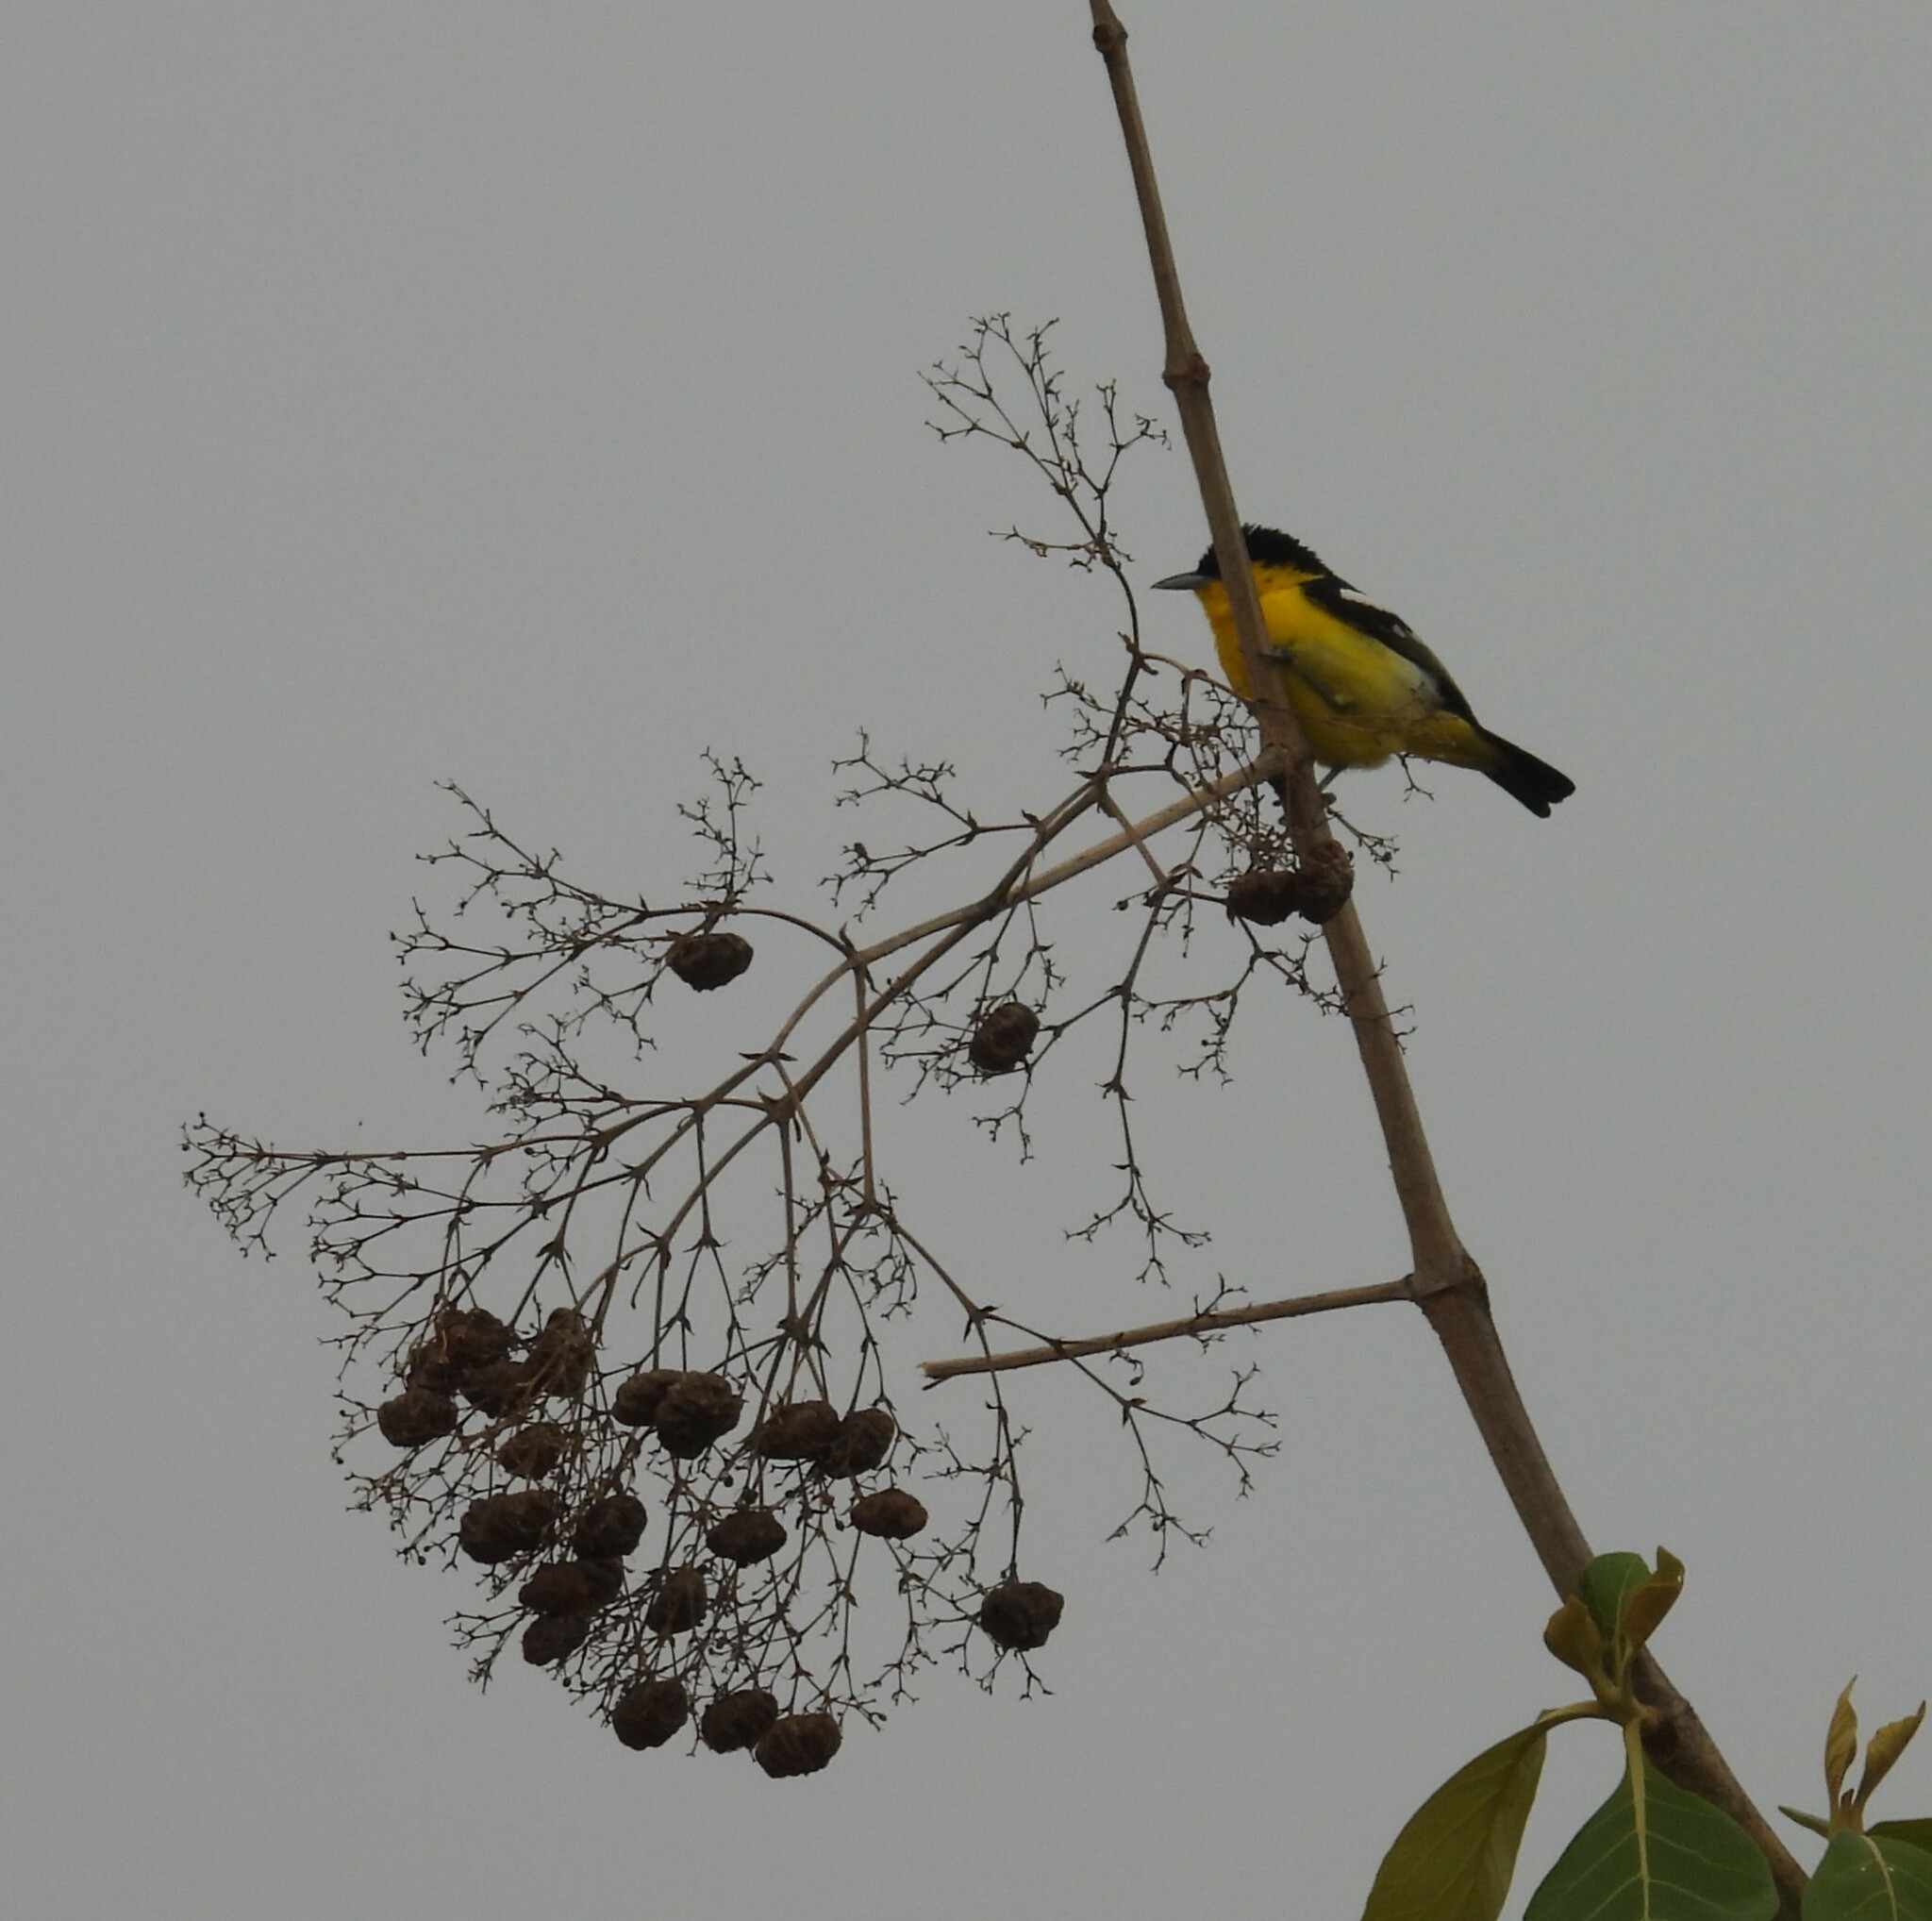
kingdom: Animalia
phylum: Chordata
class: Aves
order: Passeriformes
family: Aegithinidae
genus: Aegithina
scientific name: Aegithina tiphia
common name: Common iora
